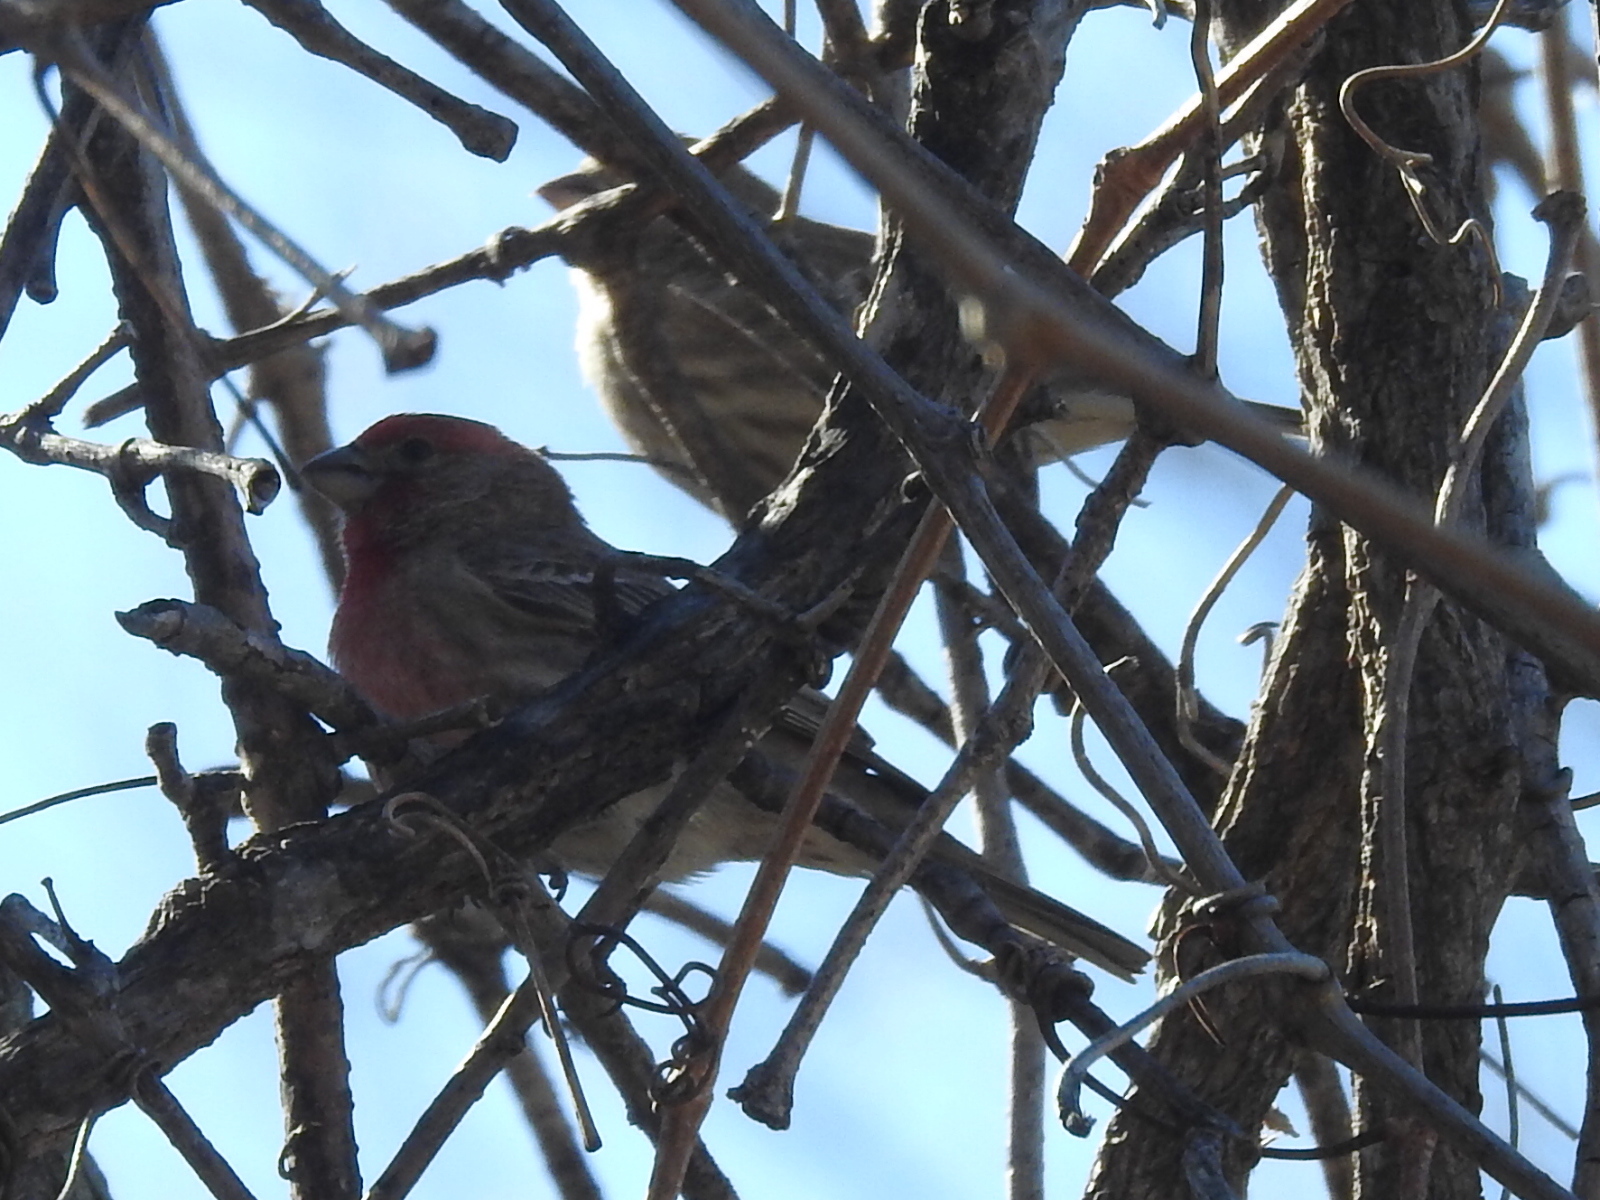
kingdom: Animalia
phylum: Chordata
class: Aves
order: Passeriformes
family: Fringillidae
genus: Haemorhous
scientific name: Haemorhous mexicanus
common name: House finch
